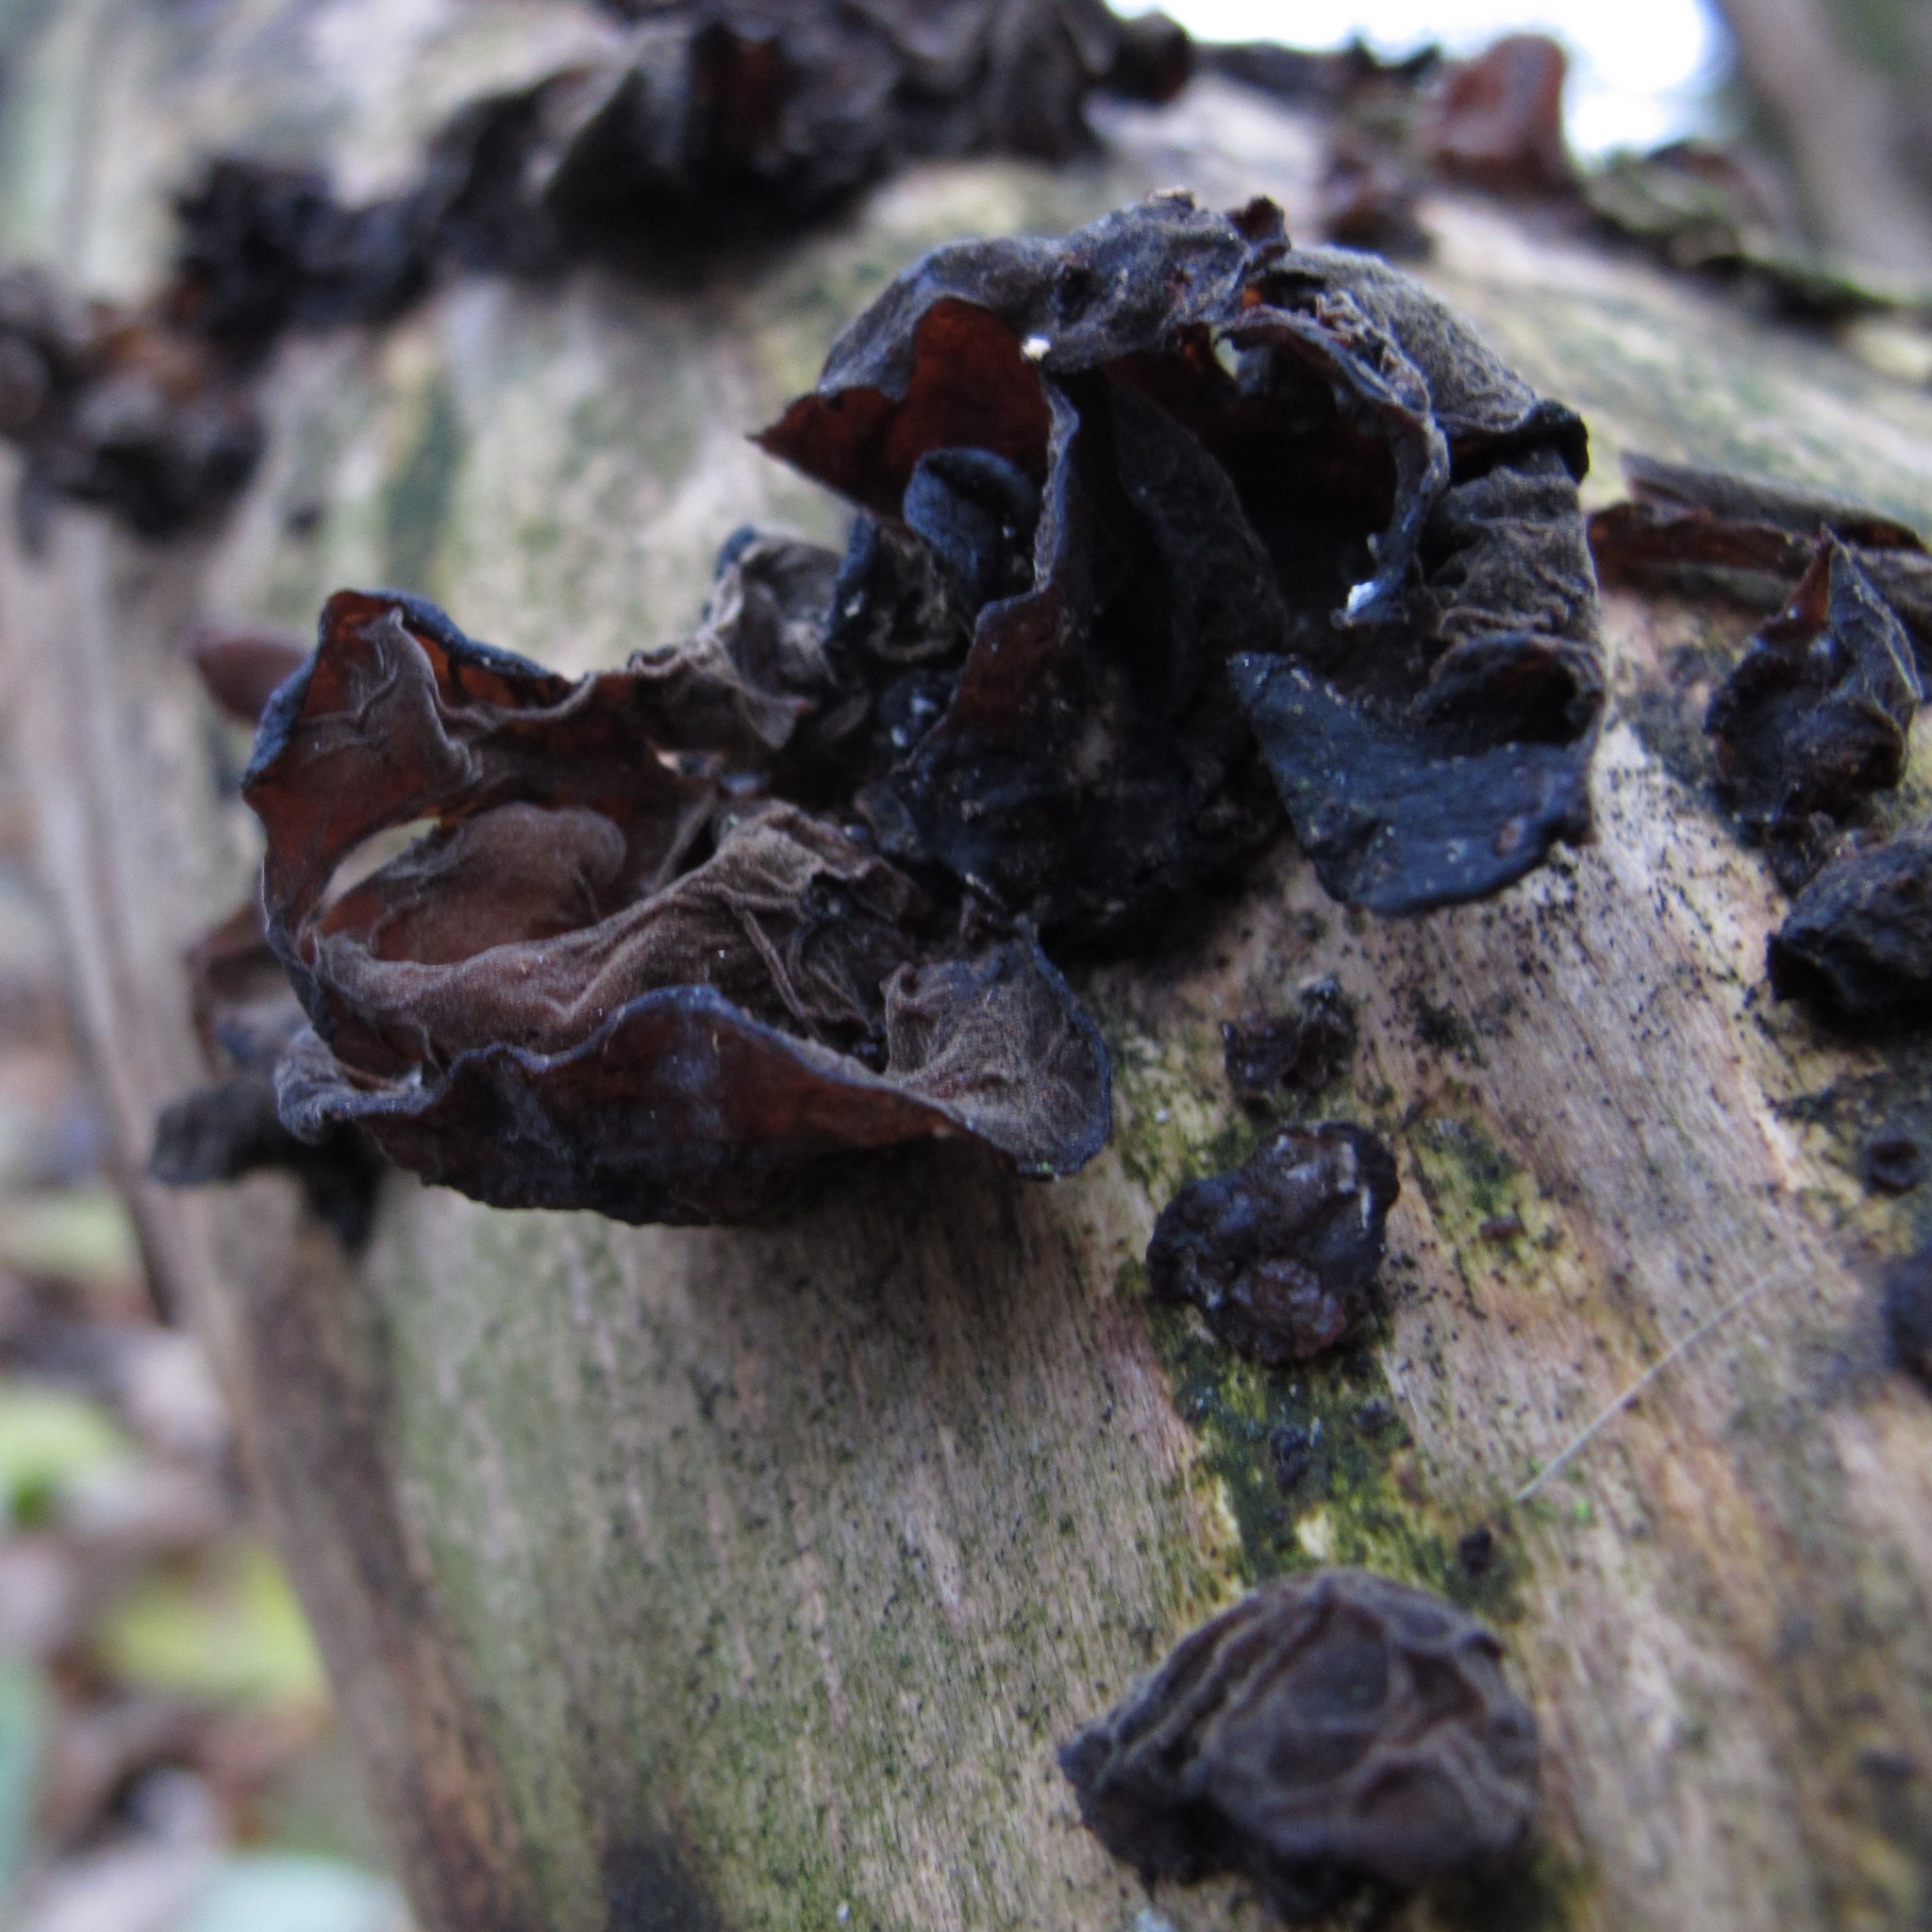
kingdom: Fungi
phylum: Basidiomycota
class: Agaricomycetes
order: Auriculariales
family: Auriculariaceae
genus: Auricularia
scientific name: Auricularia auricula-judae
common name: Jelly ear
